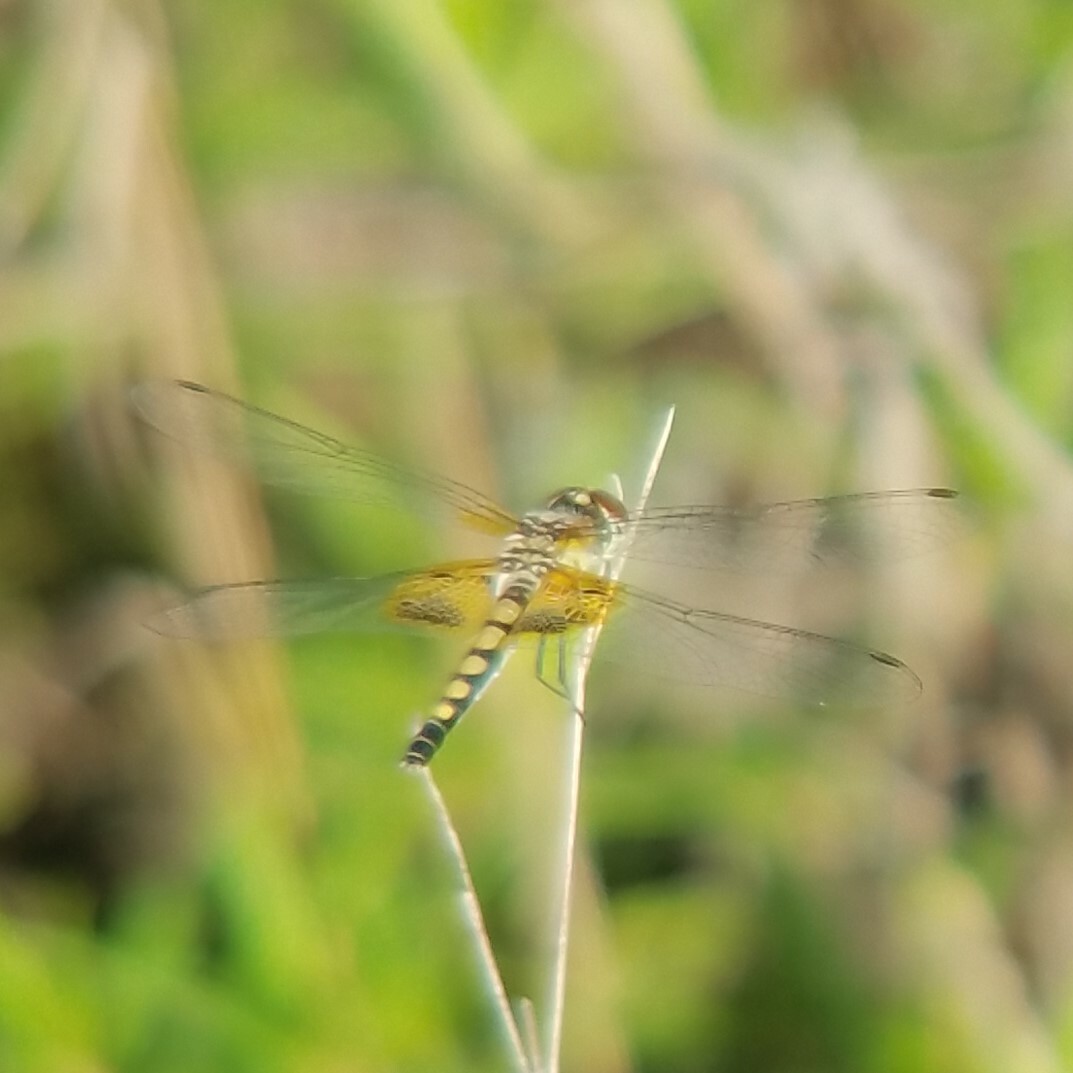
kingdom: Animalia
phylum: Arthropoda
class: Insecta
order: Odonata
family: Libellulidae
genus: Celithemis
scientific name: Celithemis amanda
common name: Amanda's pennant
